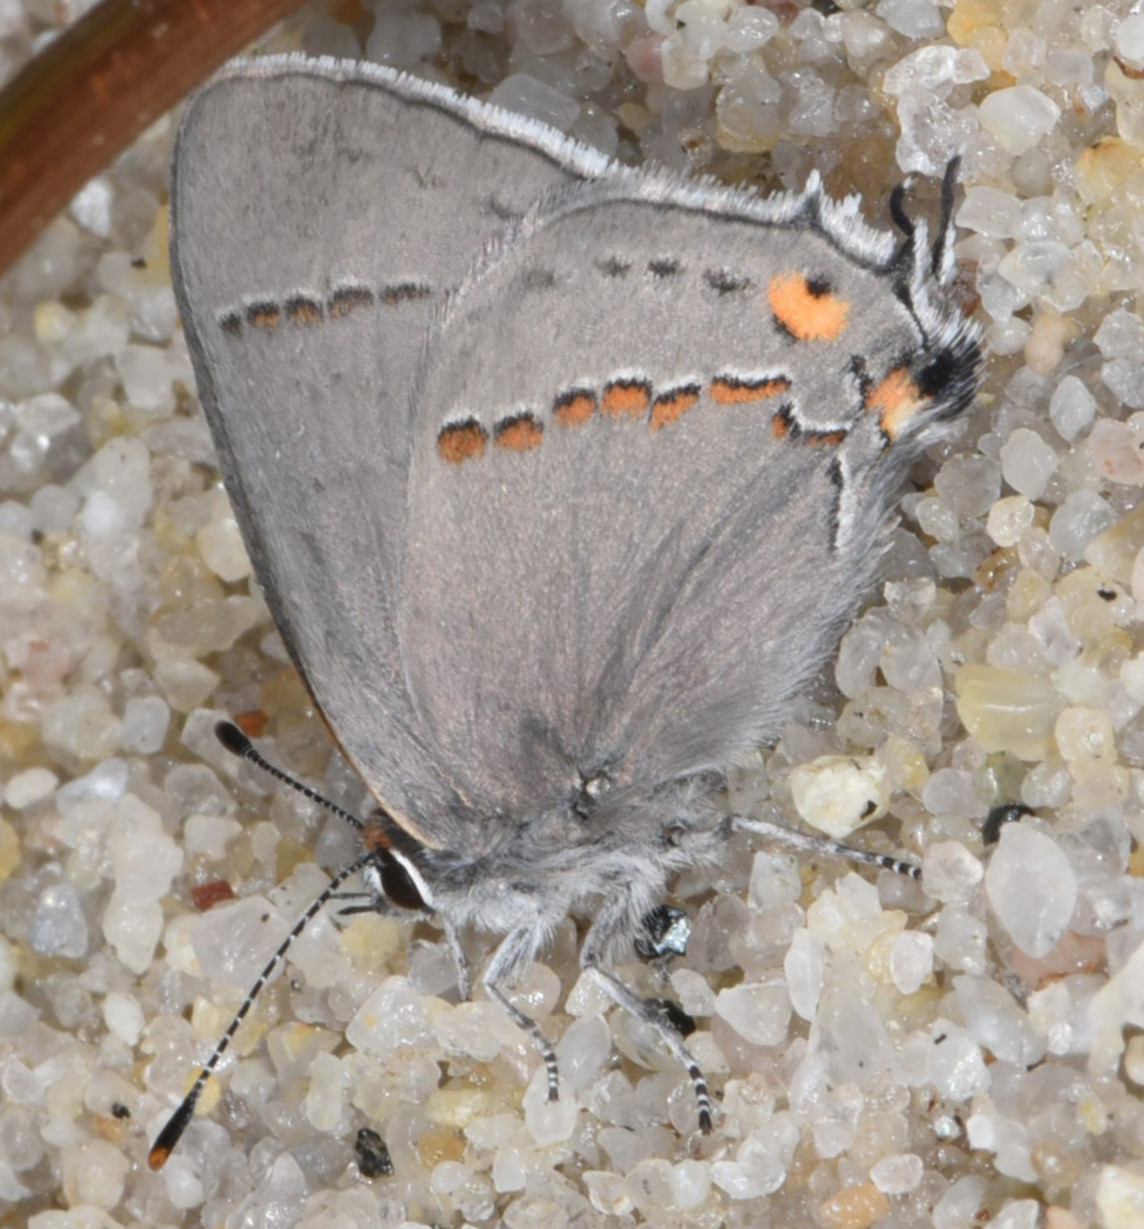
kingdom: Animalia
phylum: Arthropoda
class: Insecta
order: Lepidoptera
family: Lycaenidae
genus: Strymon
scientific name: Strymon melinus
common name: Gray hairstreak
